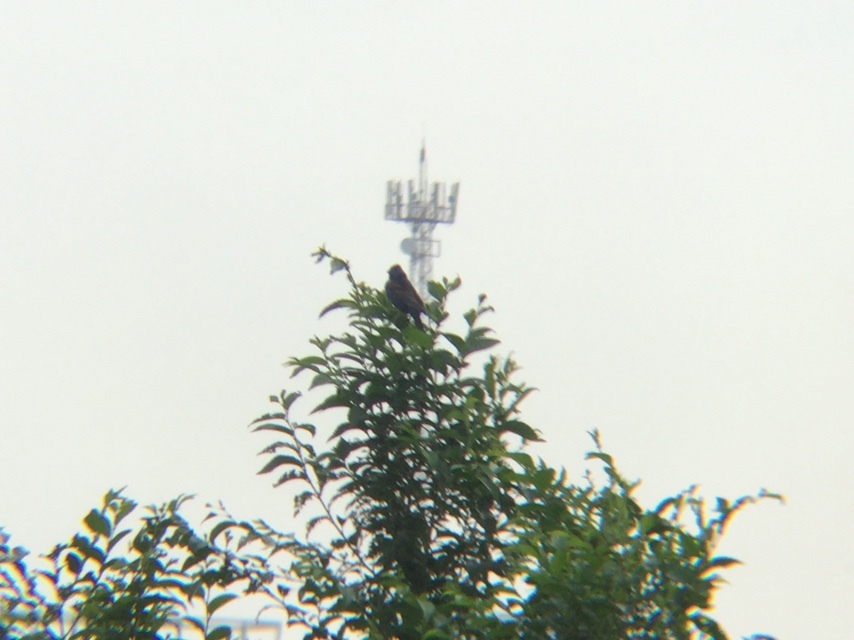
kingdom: Animalia
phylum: Chordata
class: Aves
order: Passeriformes
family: Cardinalidae
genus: Passerina
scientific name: Passerina caerulea
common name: Blue grosbeak
